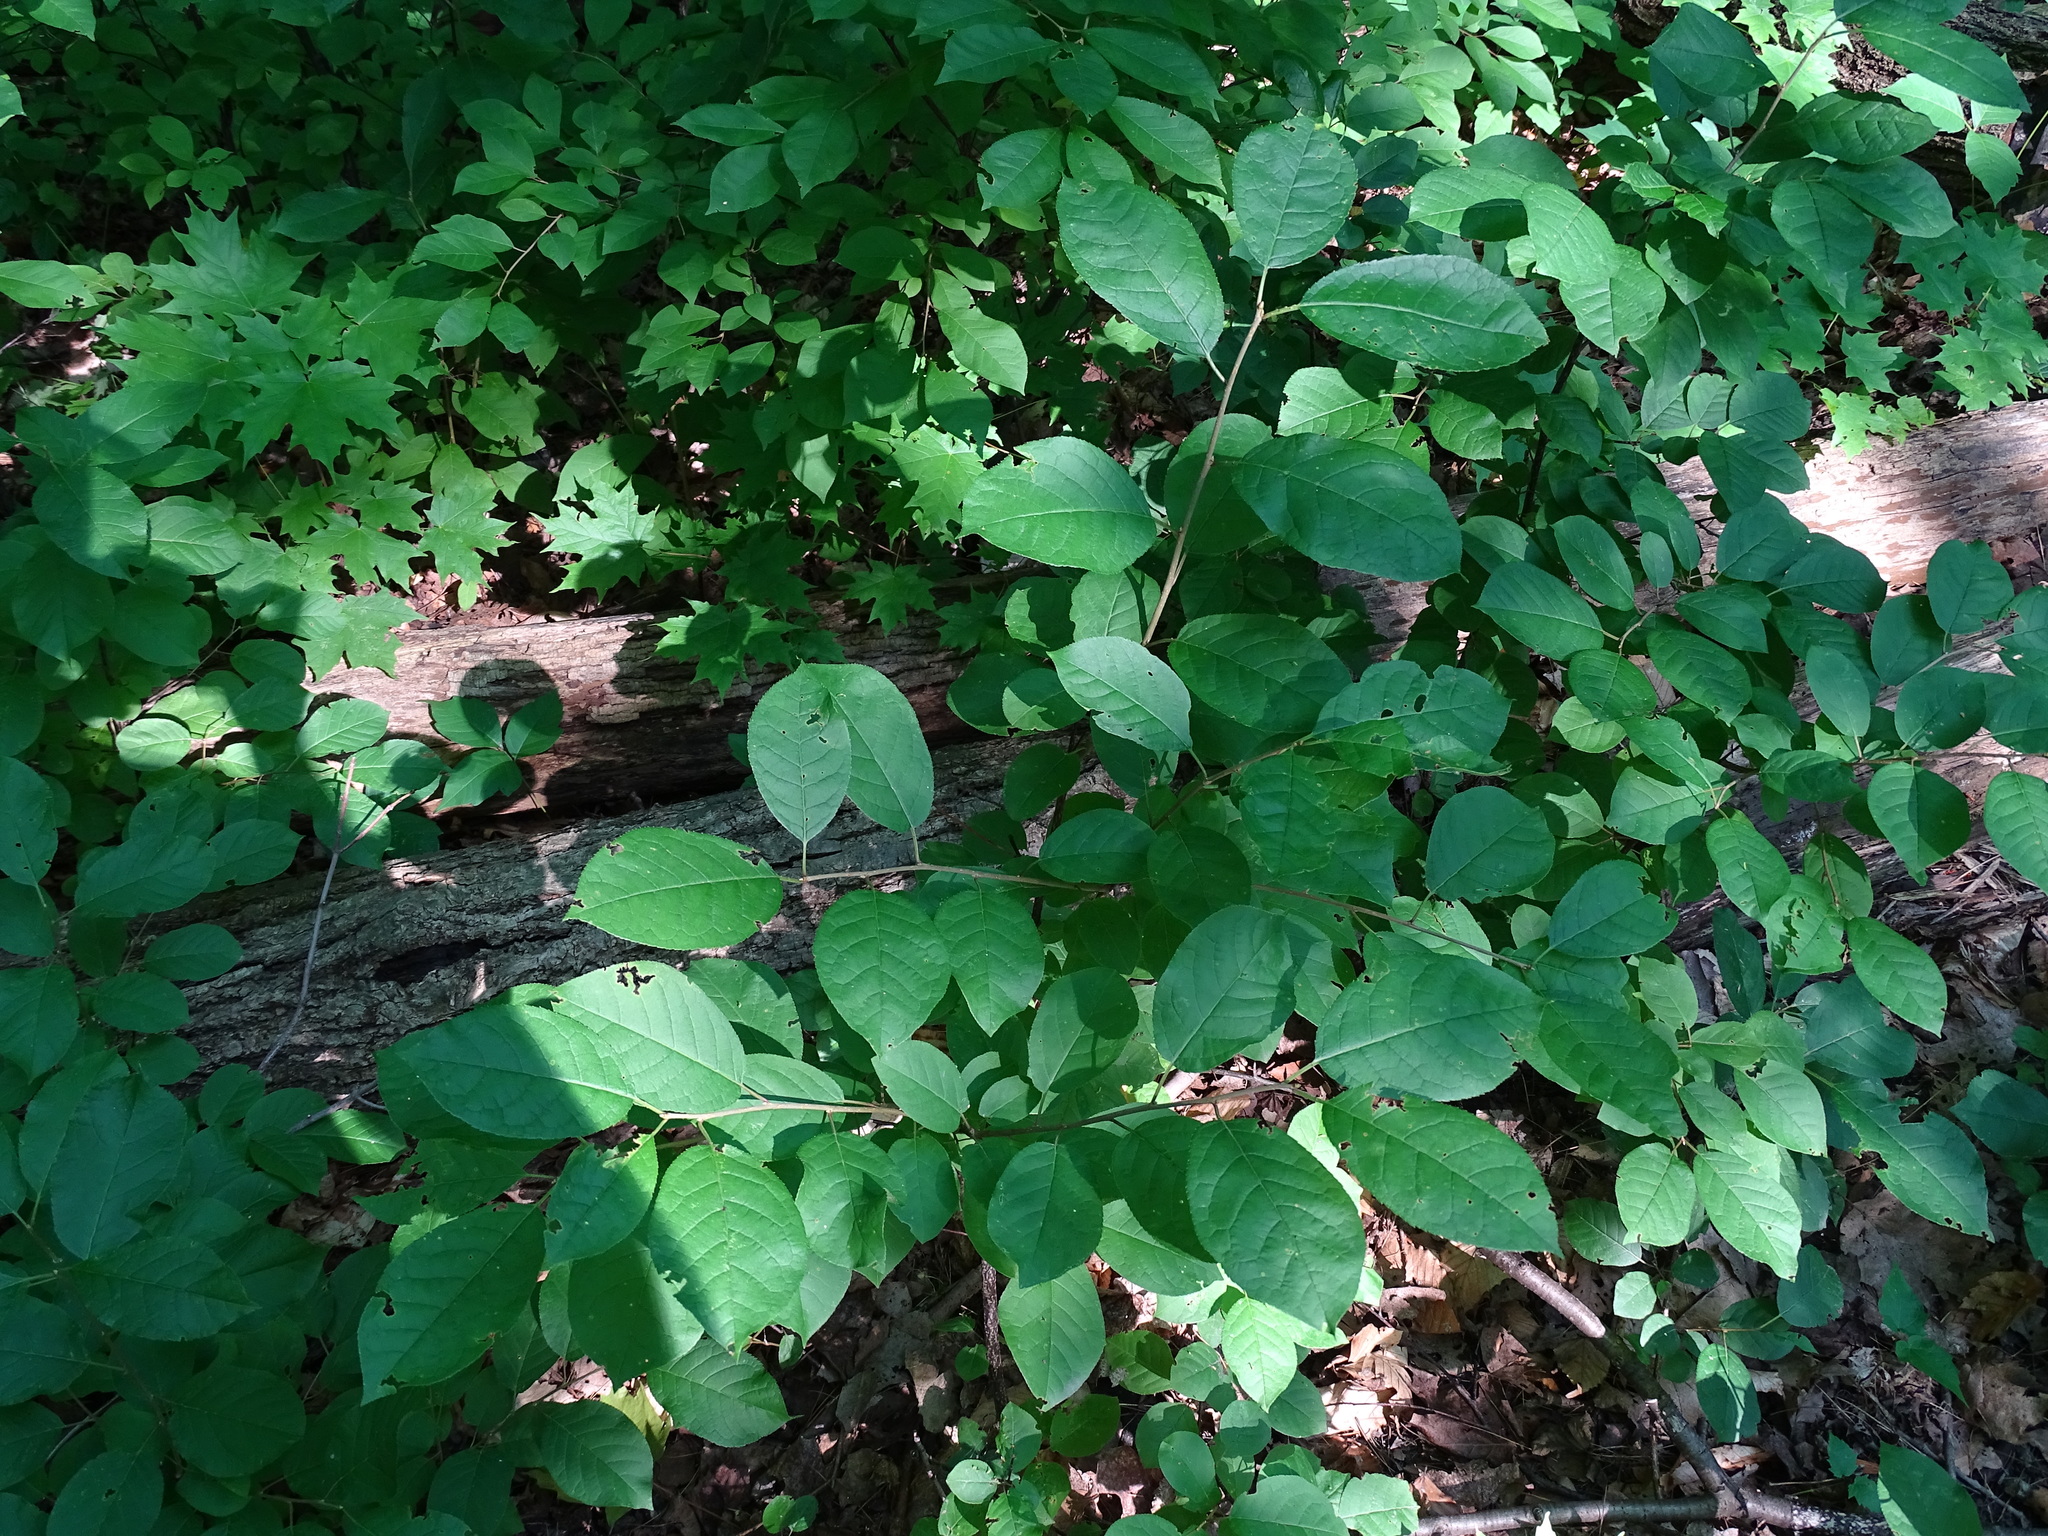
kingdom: Plantae
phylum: Tracheophyta
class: Magnoliopsida
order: Rosales
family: Rosaceae
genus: Prunus
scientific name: Prunus virginiana
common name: Chokecherry
